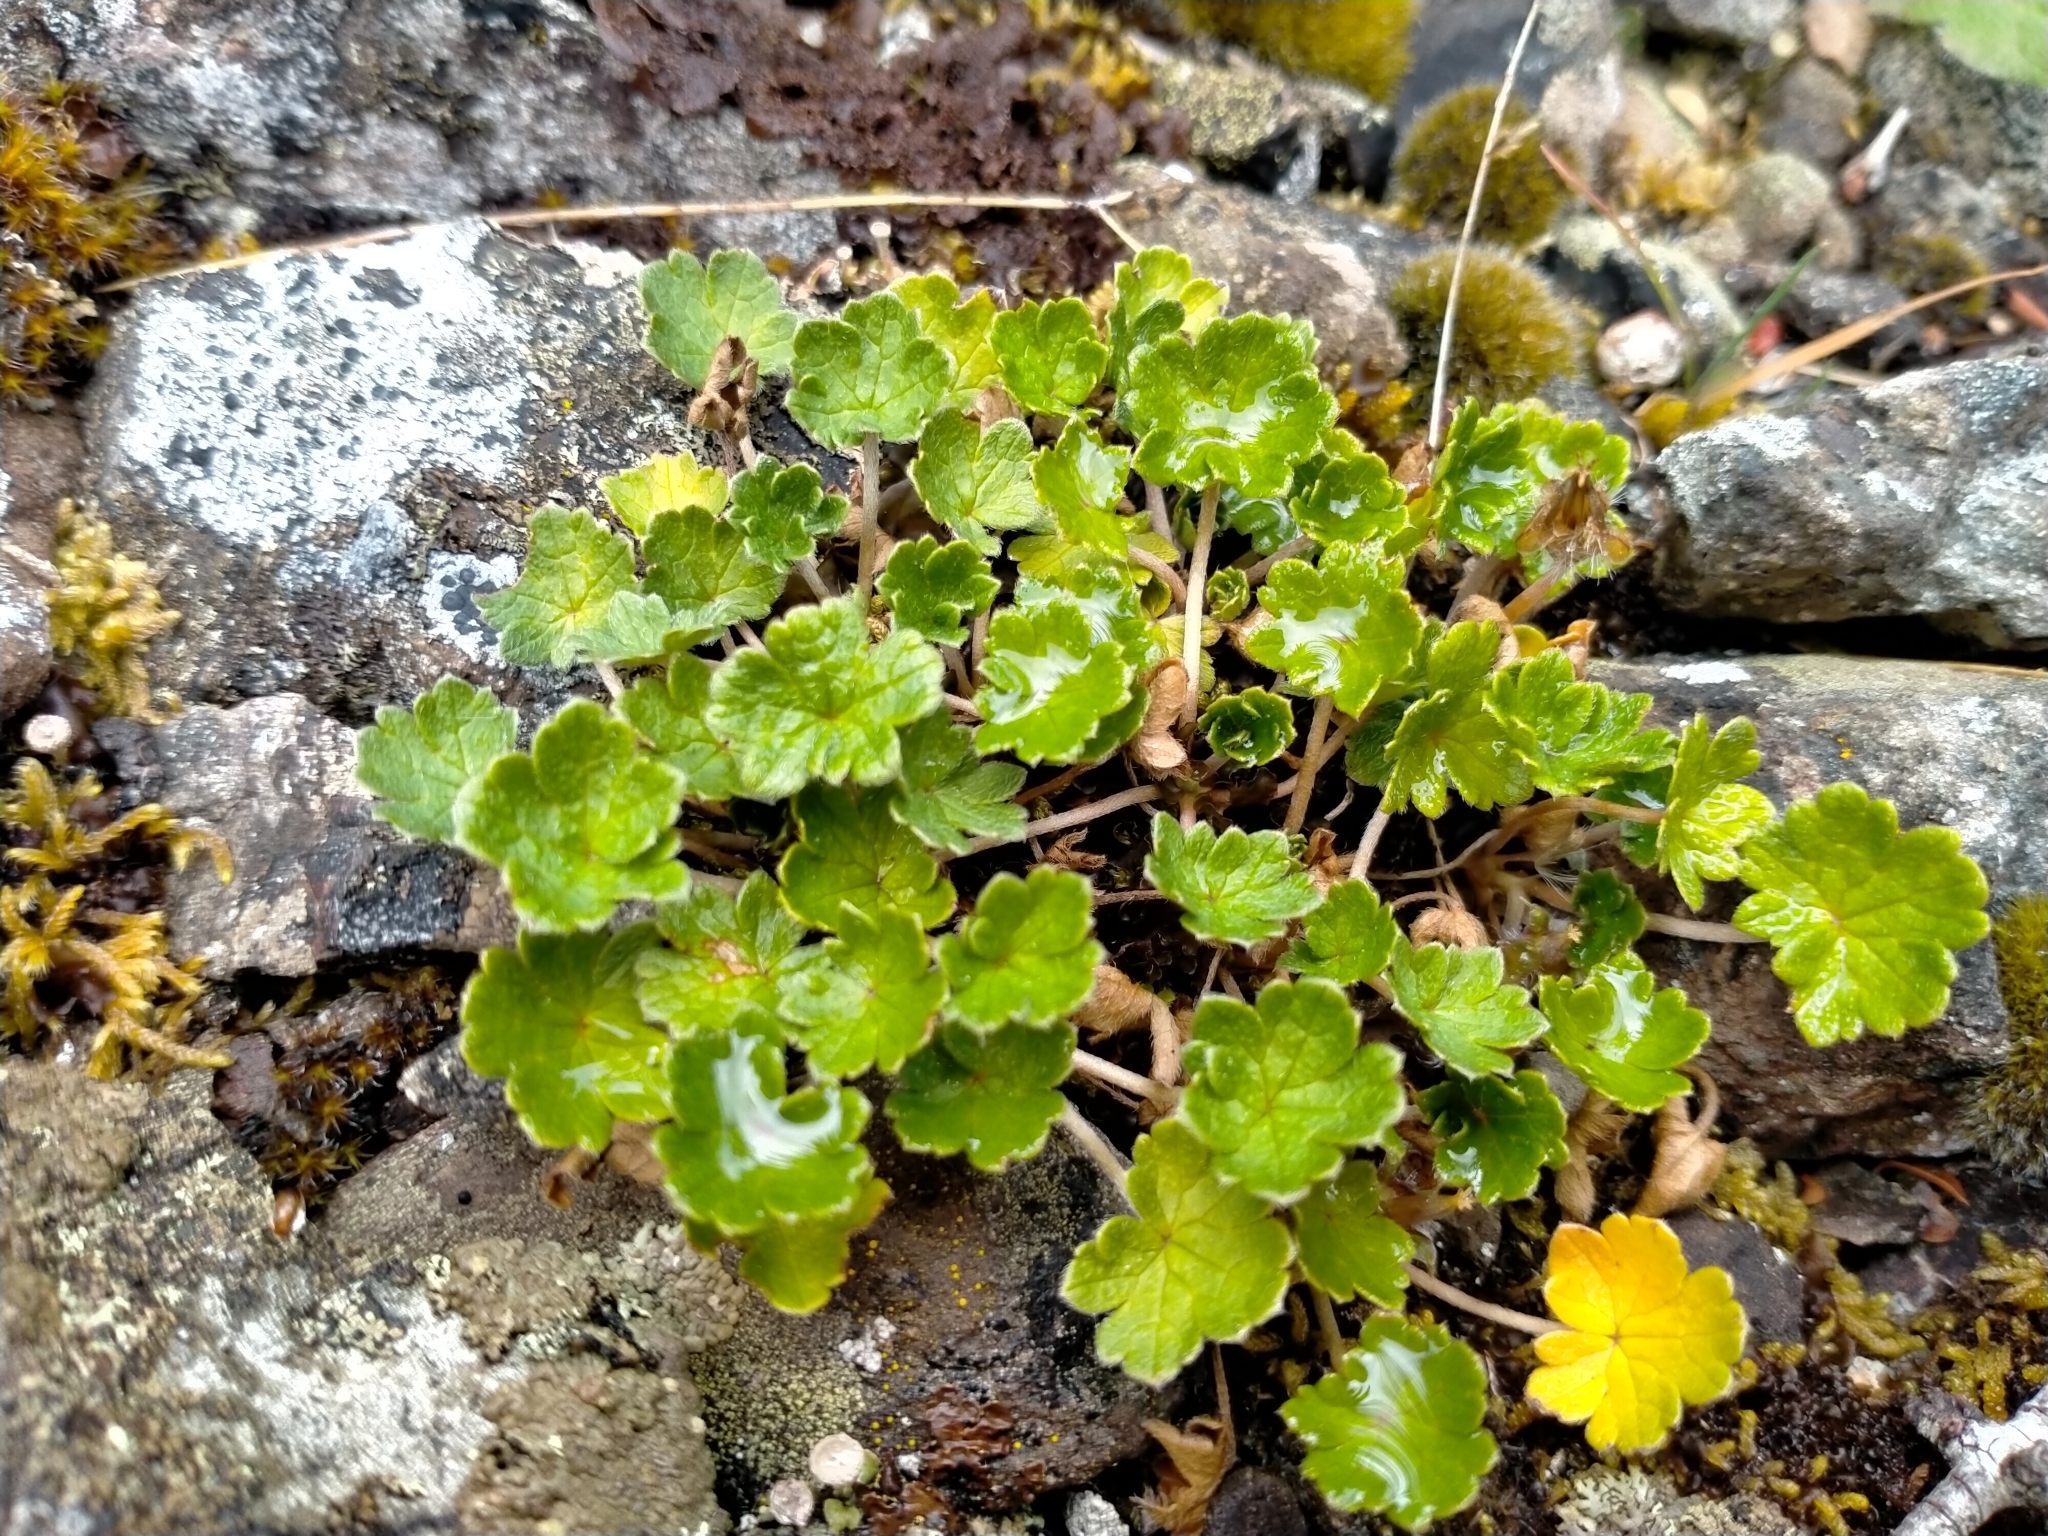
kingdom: Plantae
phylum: Tracheophyta
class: Magnoliopsida
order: Geraniales
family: Geraniaceae
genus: Geranium
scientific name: Geranium brevicaule
